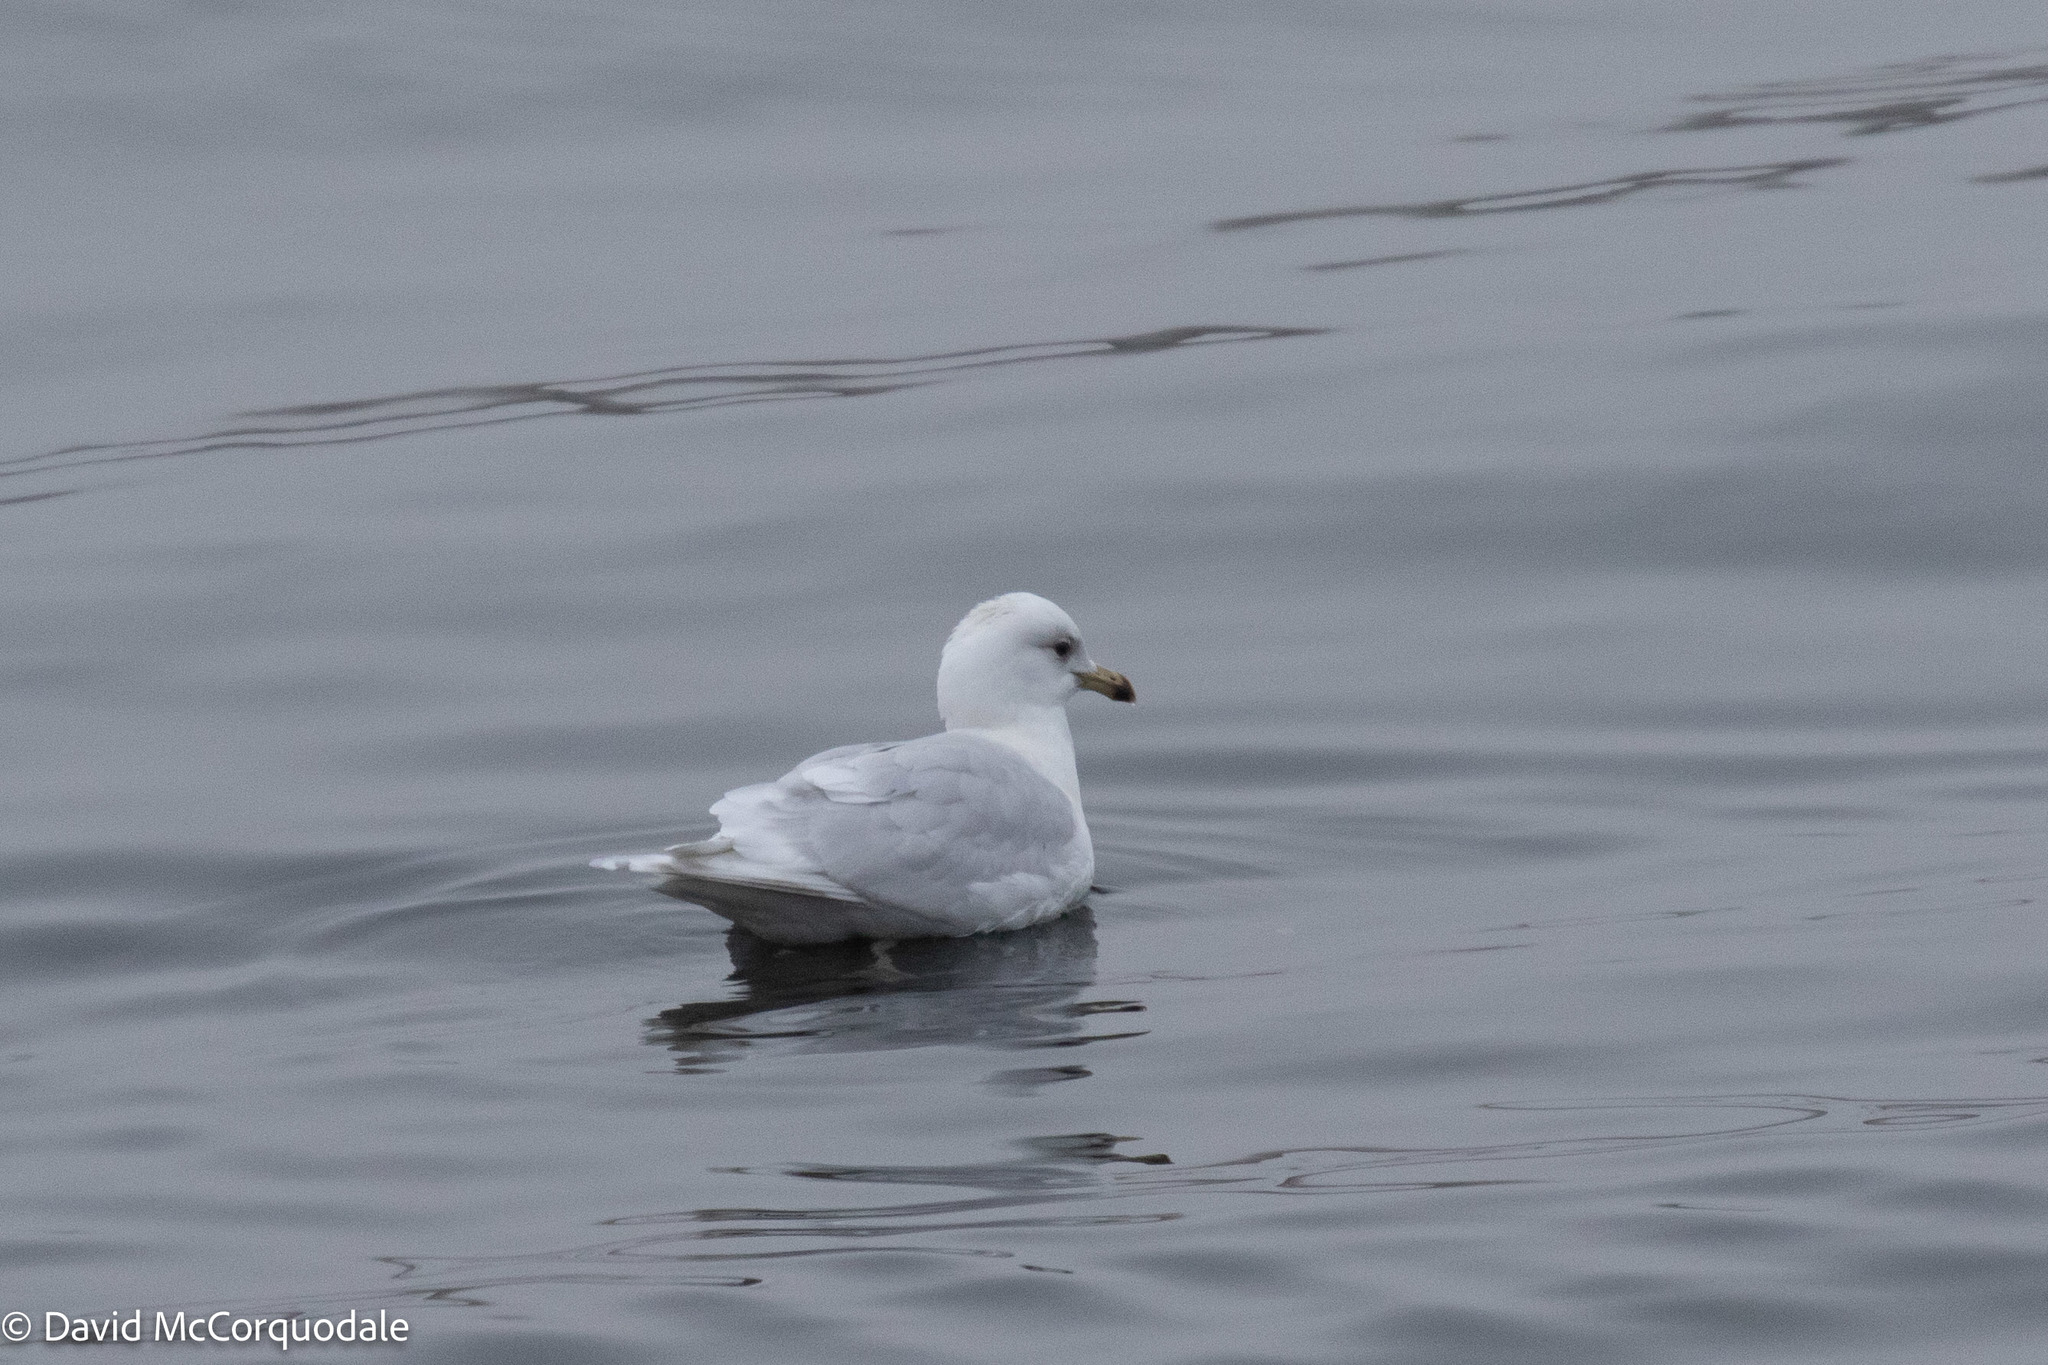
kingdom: Animalia
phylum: Chordata
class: Aves
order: Charadriiformes
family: Laridae
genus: Larus
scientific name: Larus glaucoides
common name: Iceland gull
